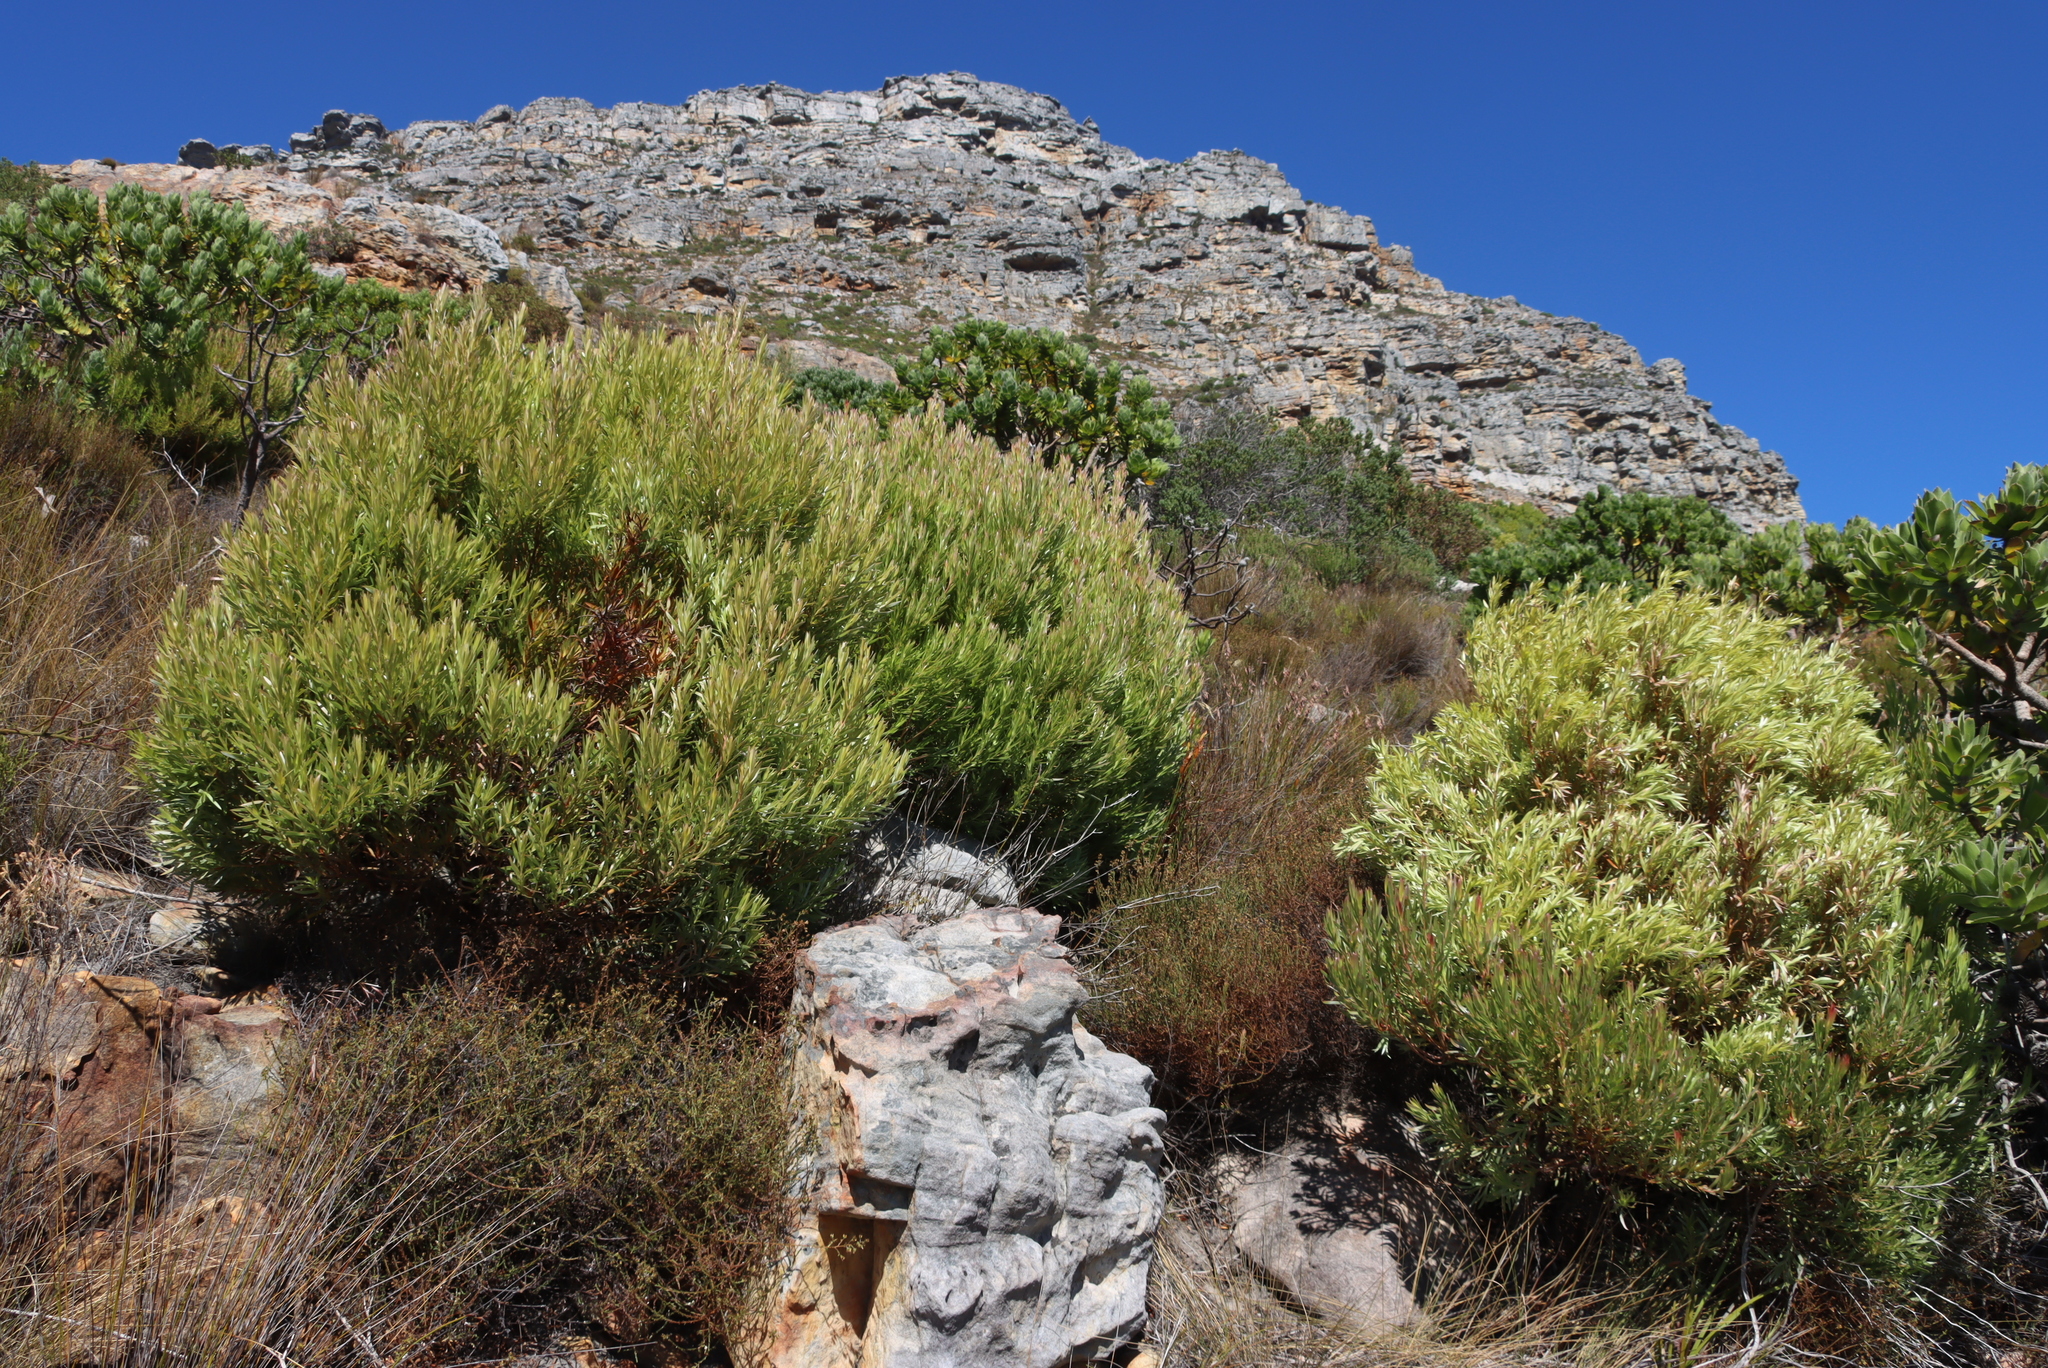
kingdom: Plantae
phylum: Tracheophyta
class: Magnoliopsida
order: Proteales
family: Proteaceae
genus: Leucadendron
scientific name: Leucadendron xanthoconus
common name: Sickle-leaf conebush
